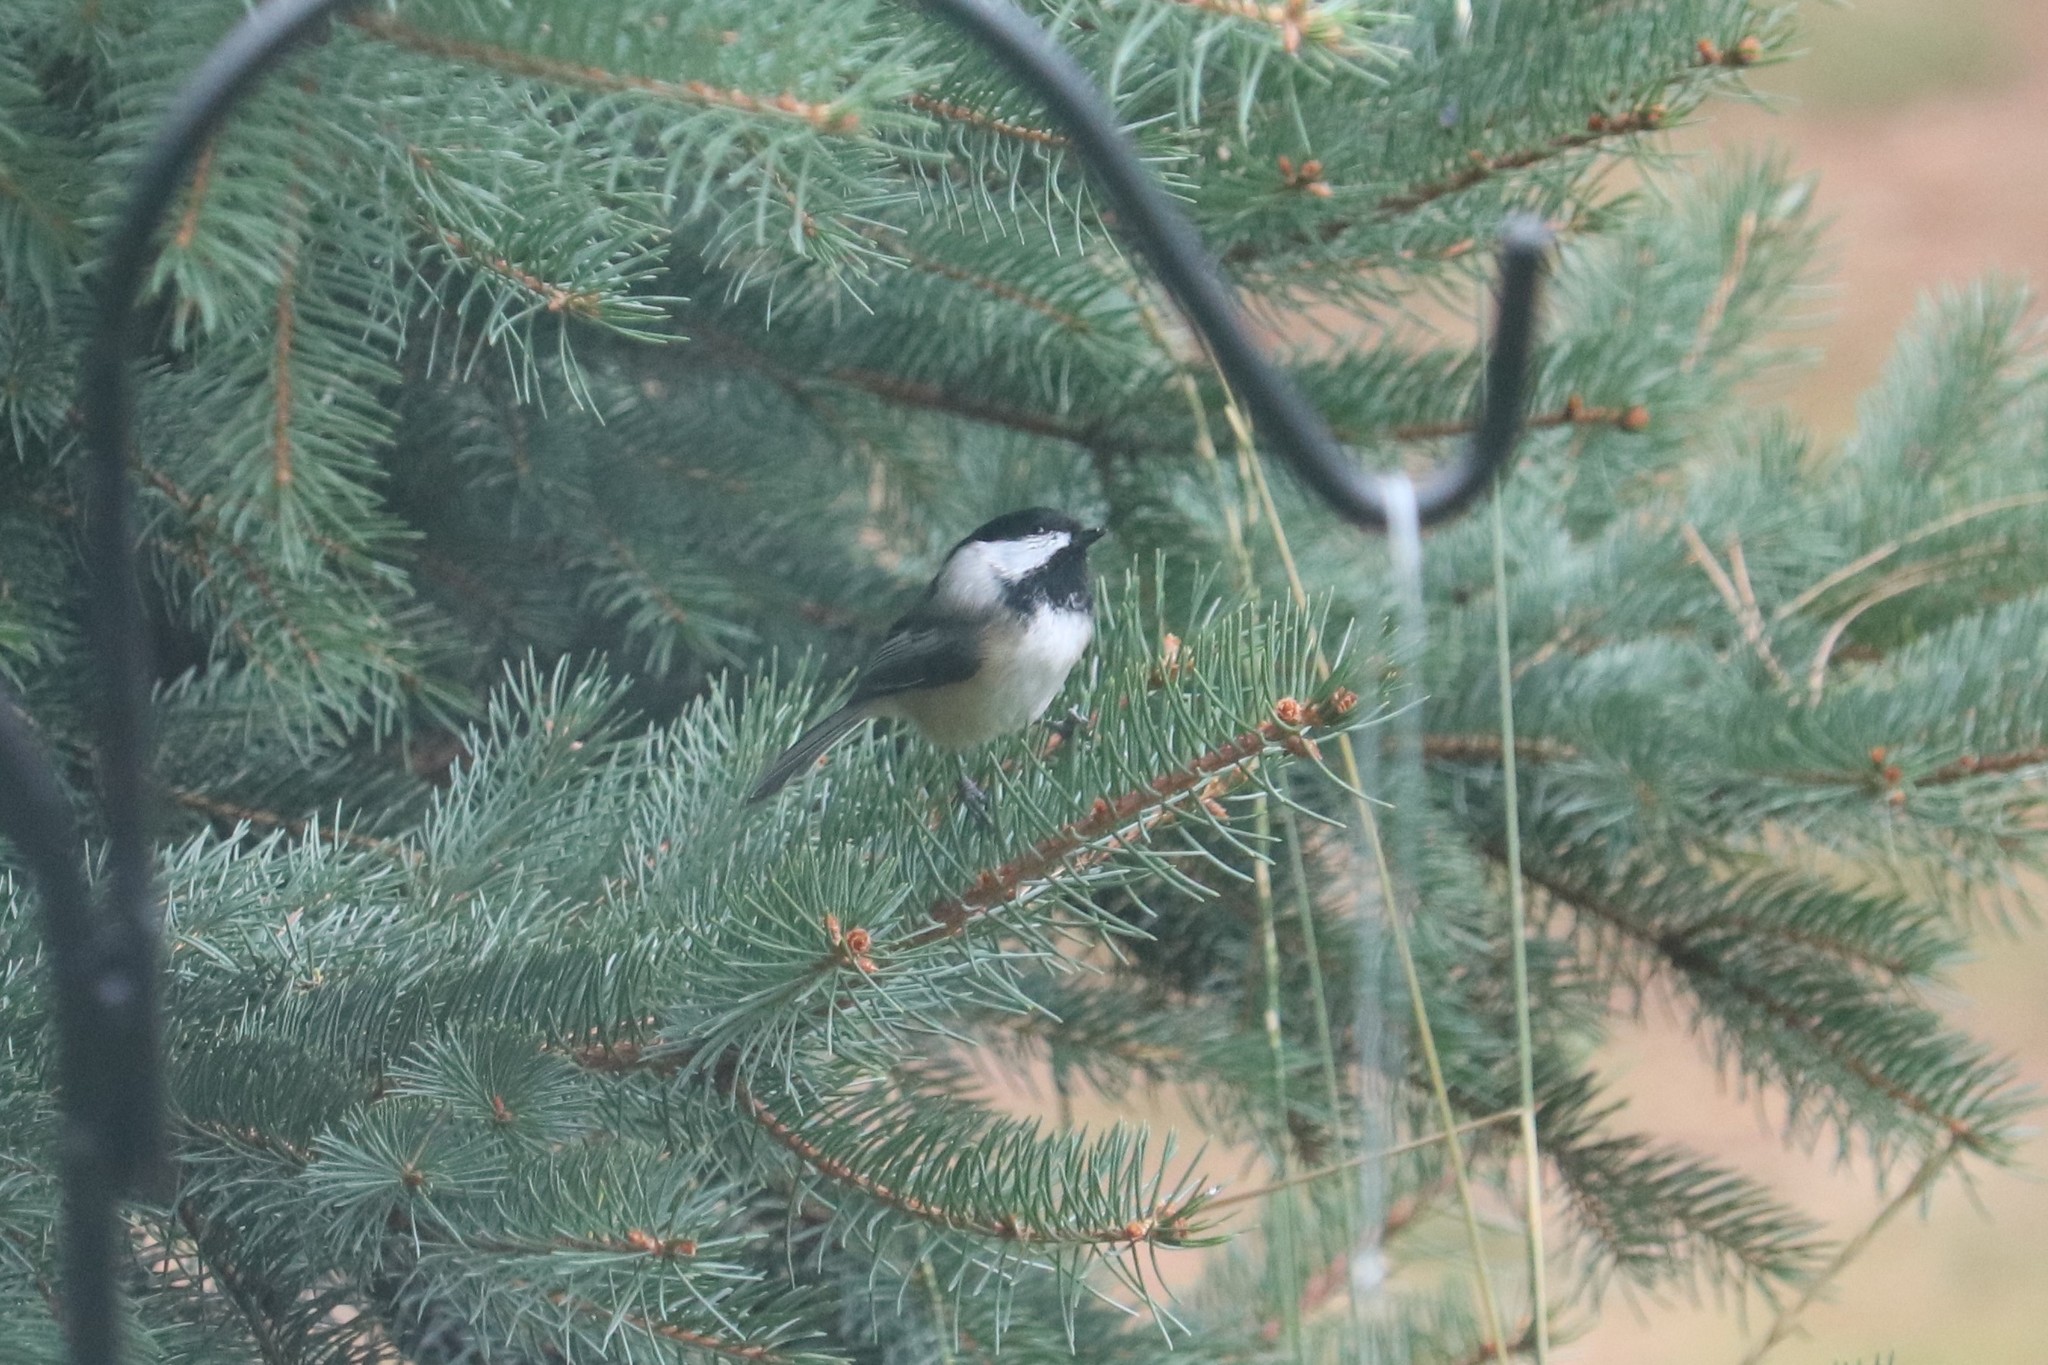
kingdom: Animalia
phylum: Chordata
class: Aves
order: Passeriformes
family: Paridae
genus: Poecile
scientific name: Poecile atricapillus
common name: Black-capped chickadee
